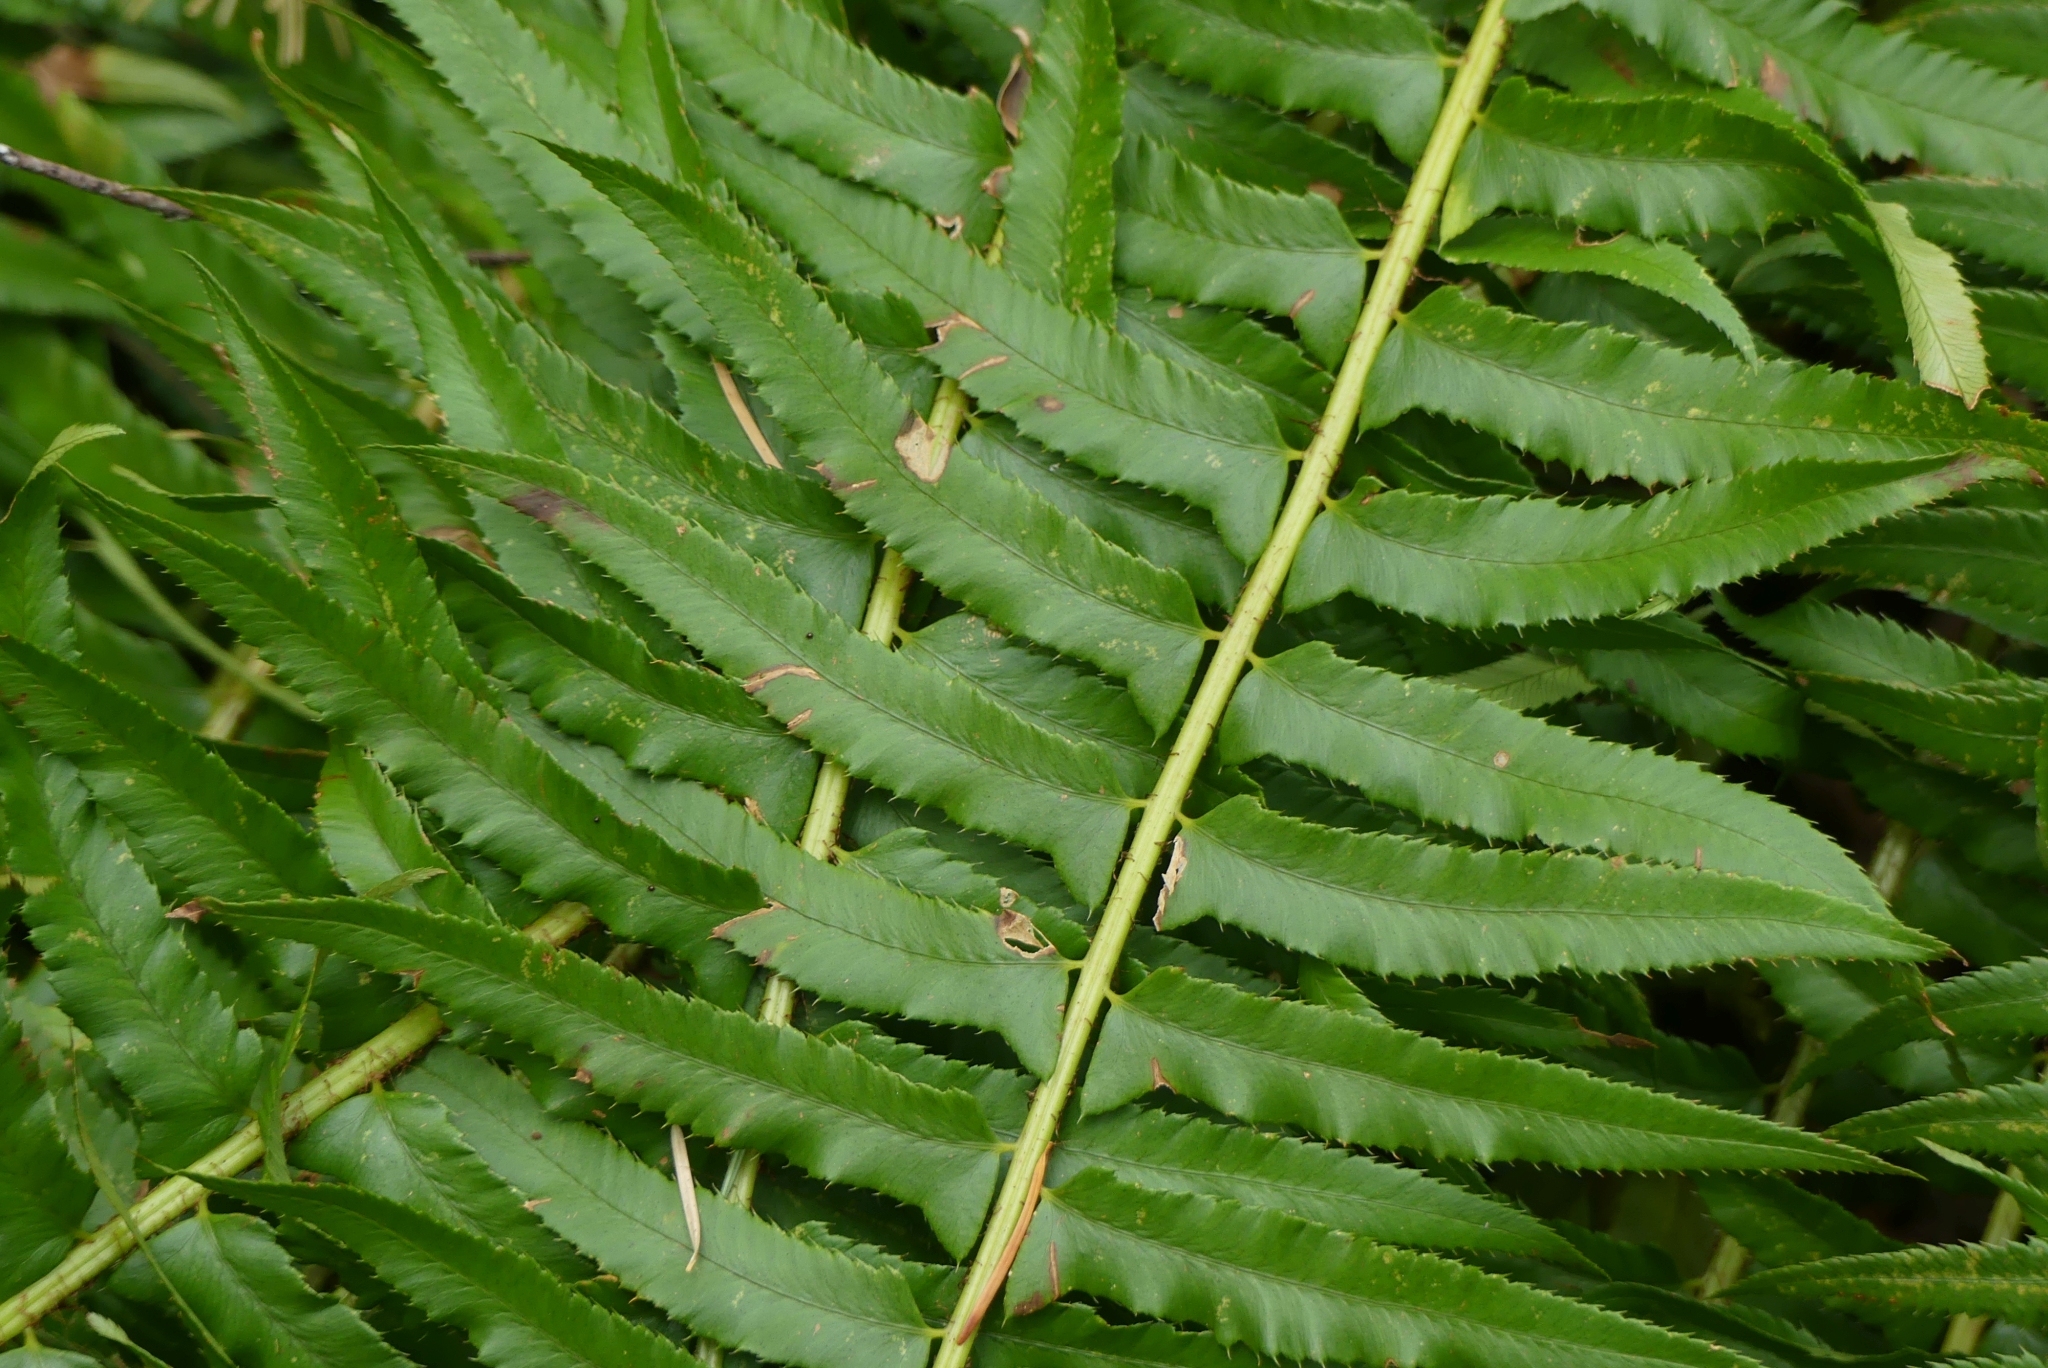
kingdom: Plantae
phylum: Tracheophyta
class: Polypodiopsida
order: Polypodiales
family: Dryopteridaceae
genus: Polystichum
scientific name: Polystichum munitum
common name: Western sword-fern
